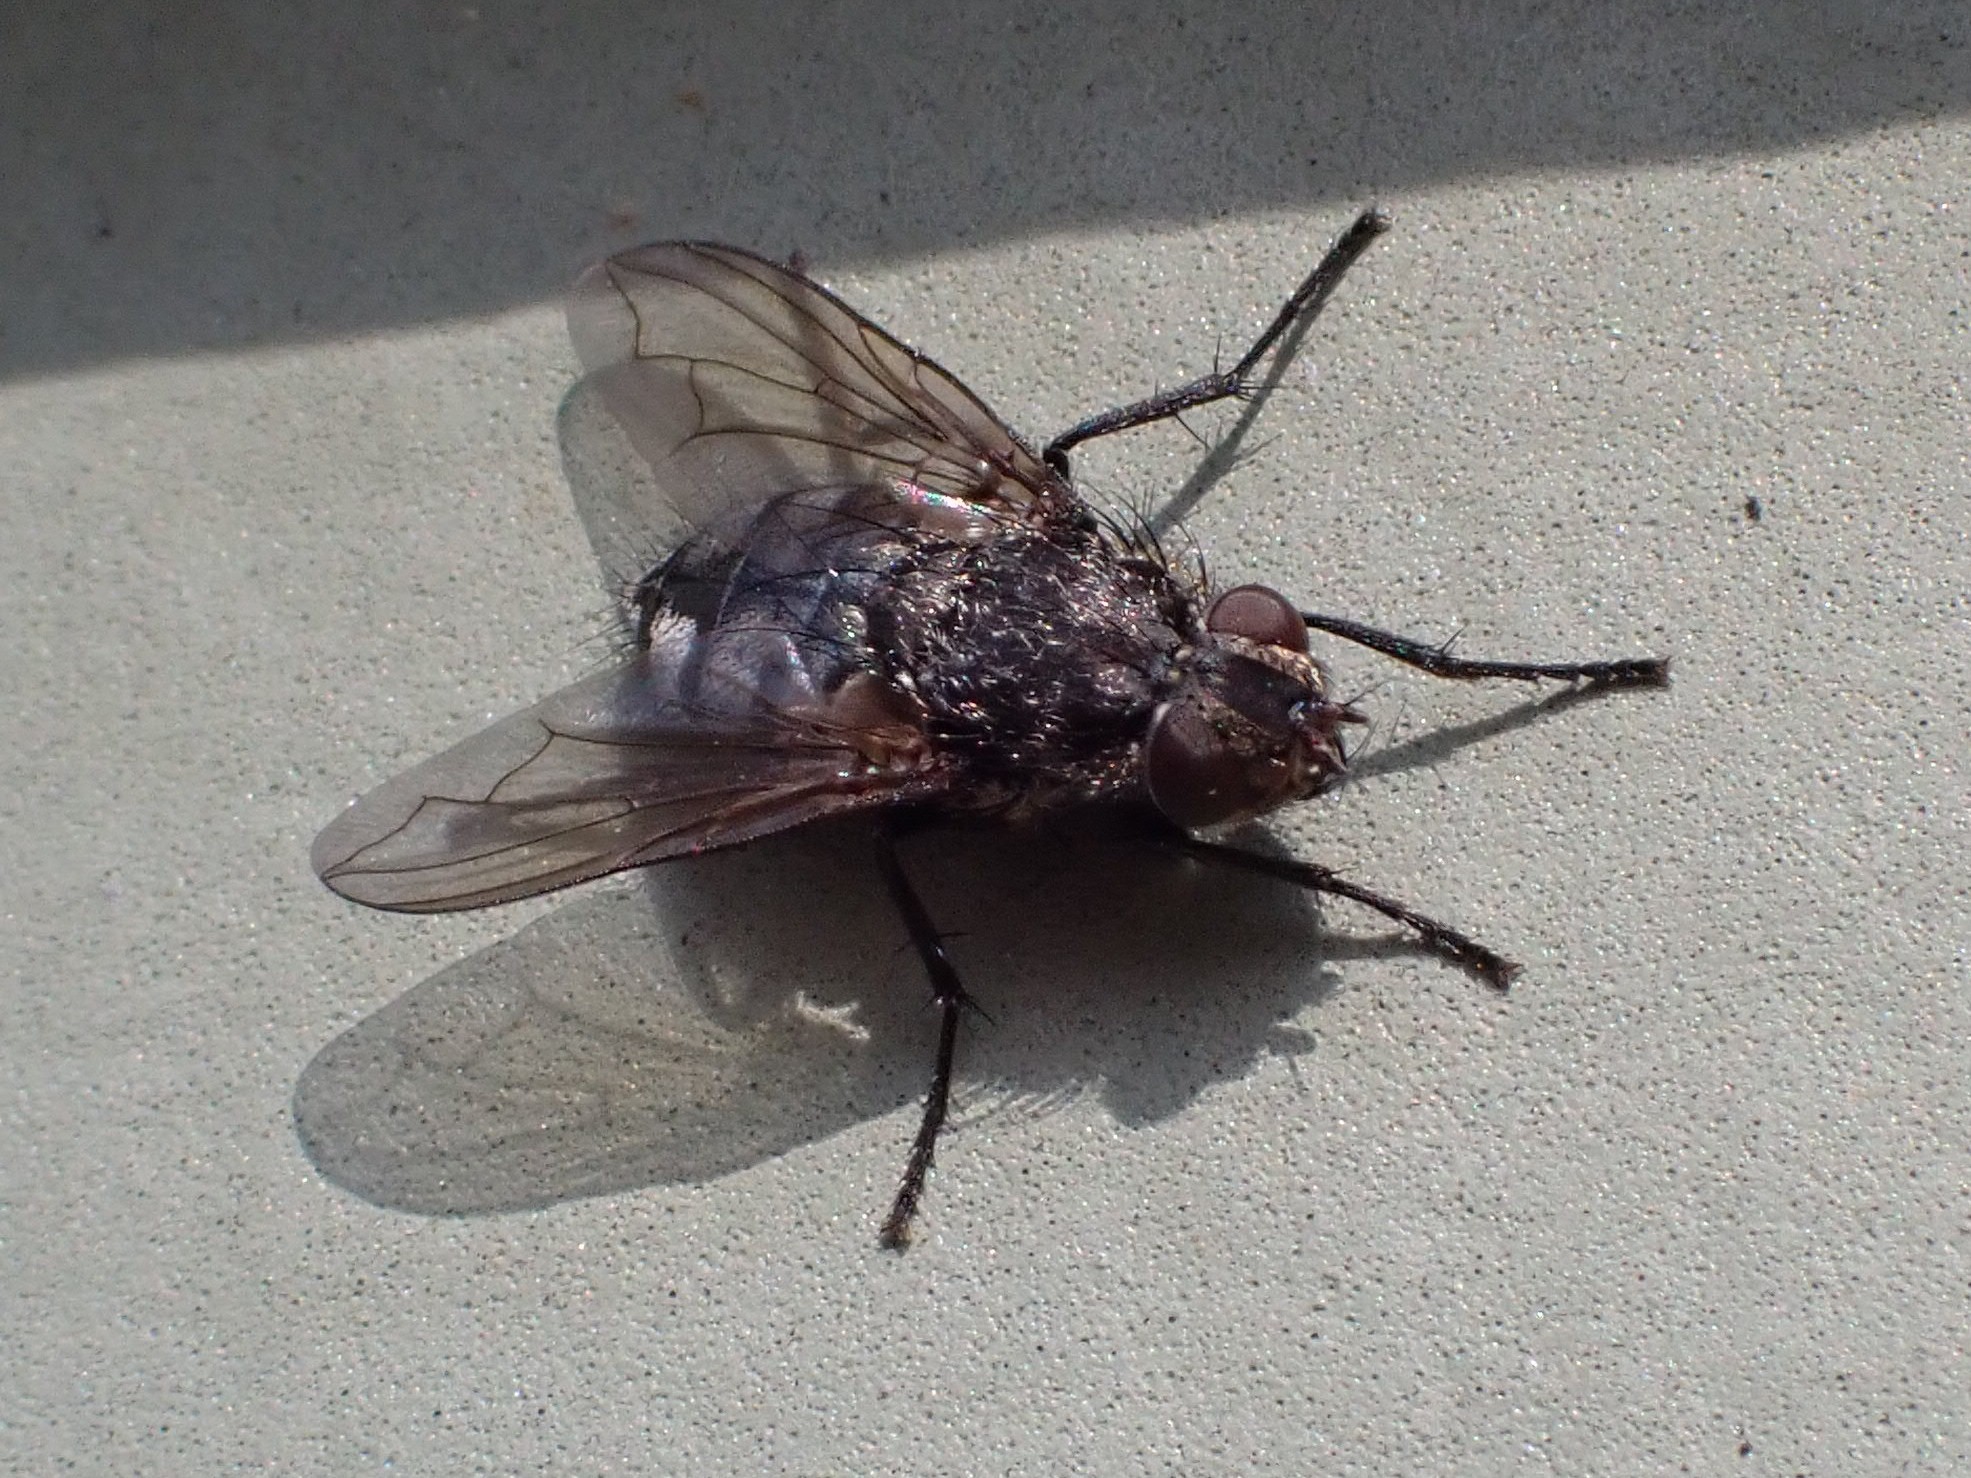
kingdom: Animalia
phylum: Arthropoda
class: Insecta
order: Diptera
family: Polleniidae
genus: Pollenia
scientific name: Pollenia vagabunda
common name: Vagabund cluster fly
